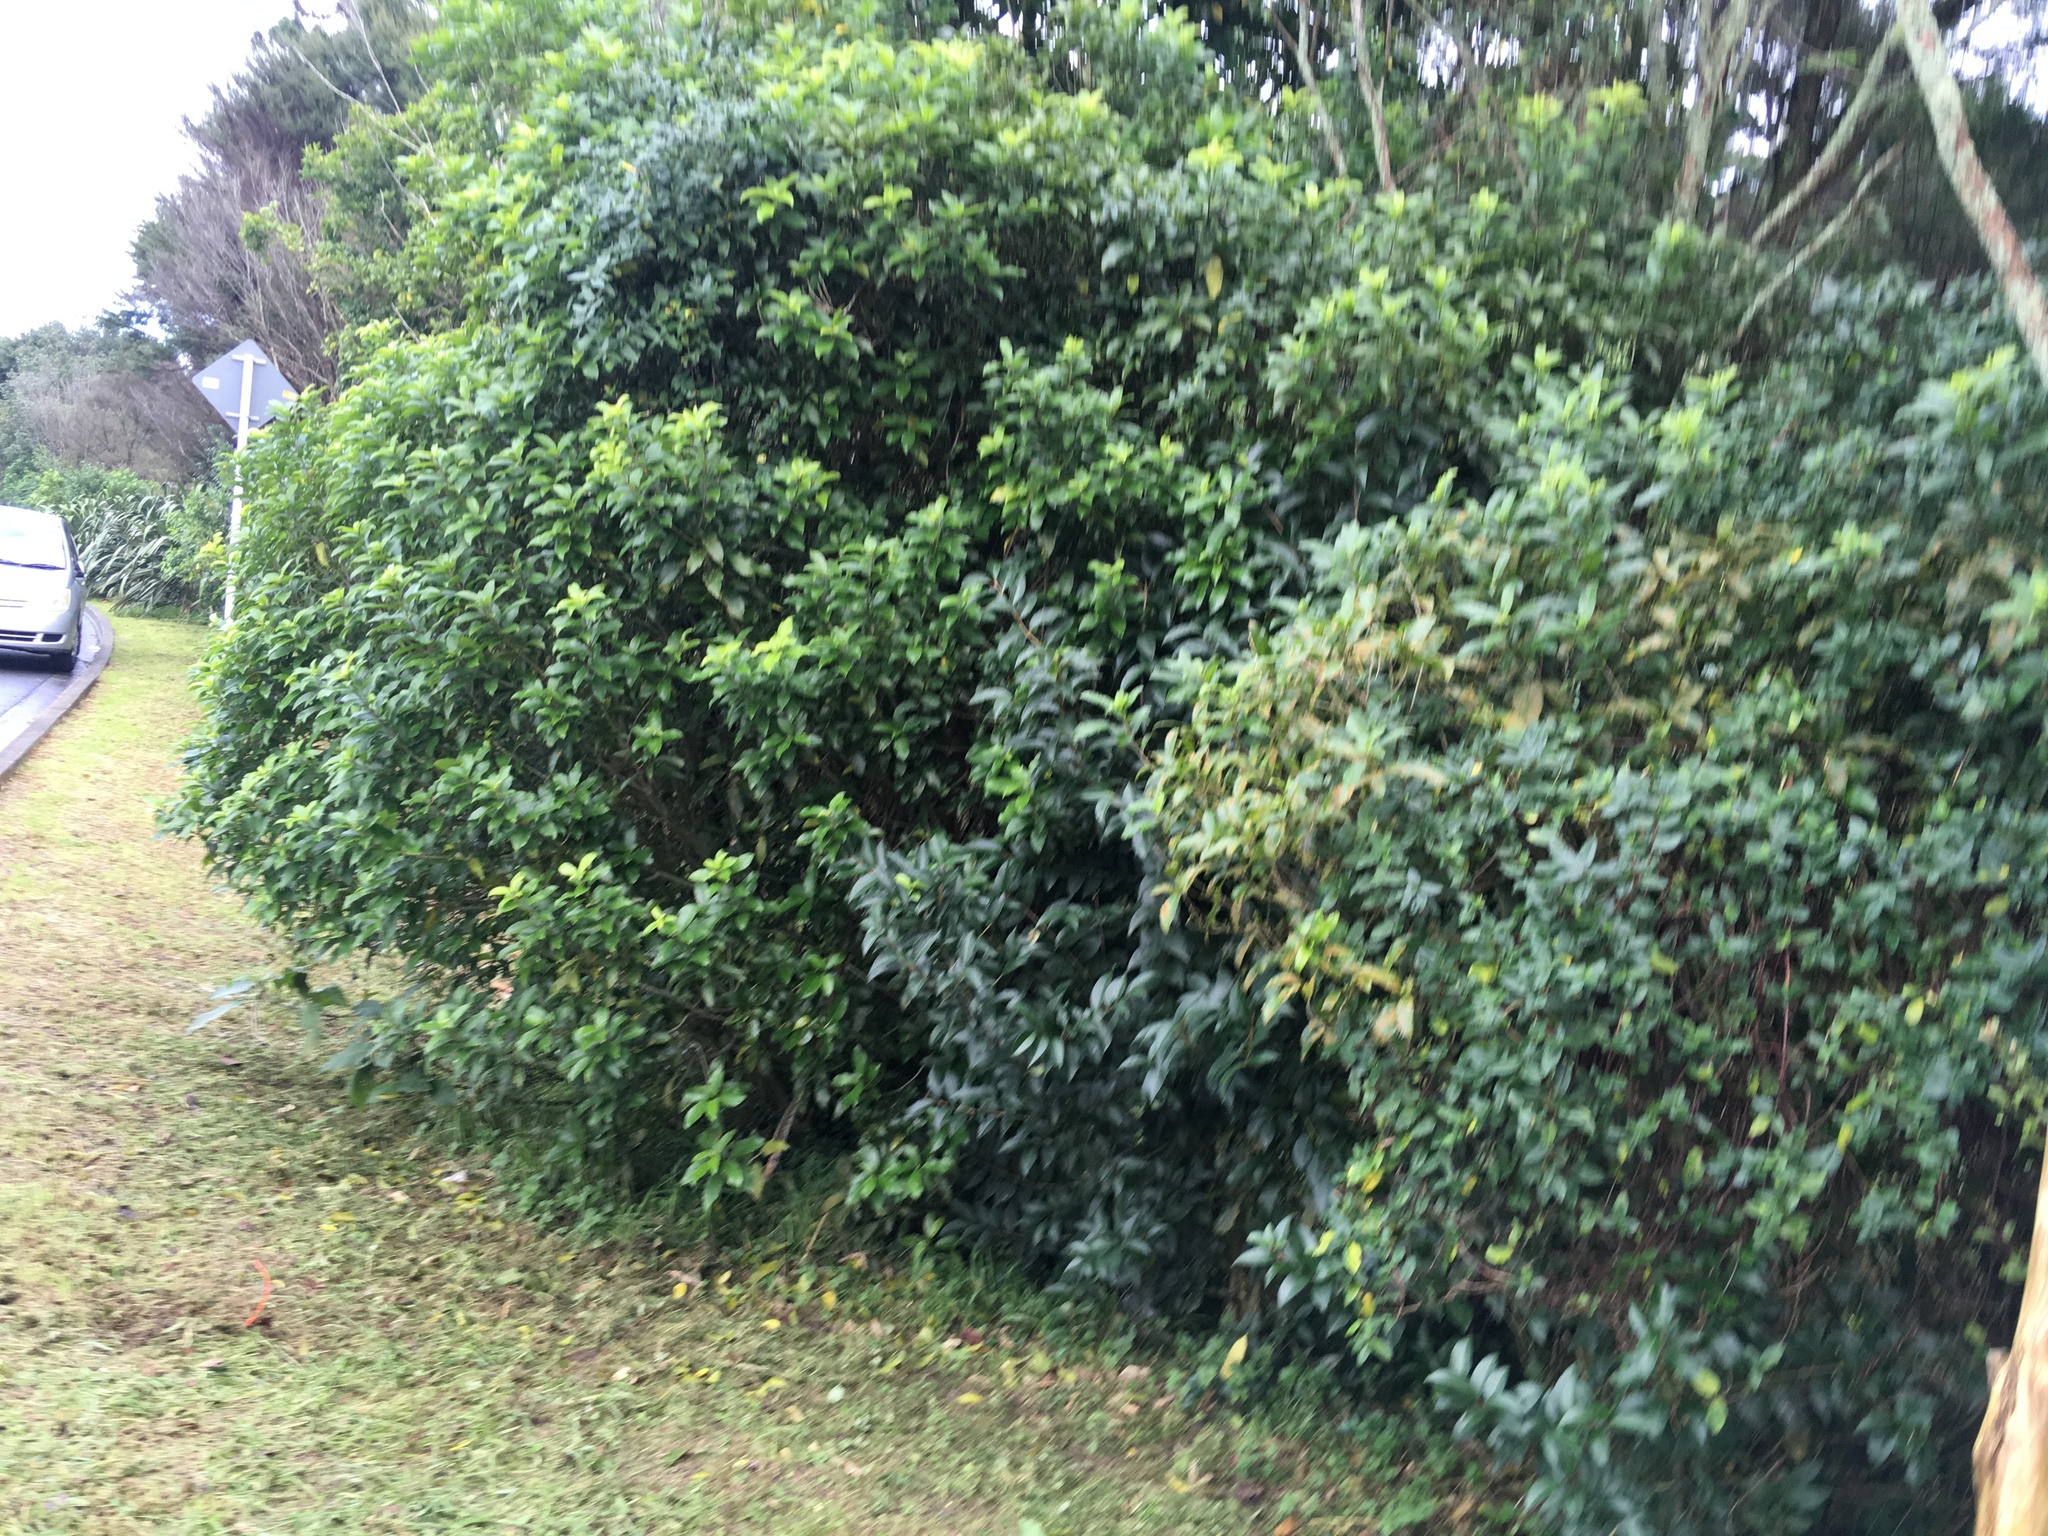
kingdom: Plantae
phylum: Tracheophyta
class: Magnoliopsida
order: Lamiales
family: Oleaceae
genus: Ligustrum
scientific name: Ligustrum lucidum
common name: Glossy privet
